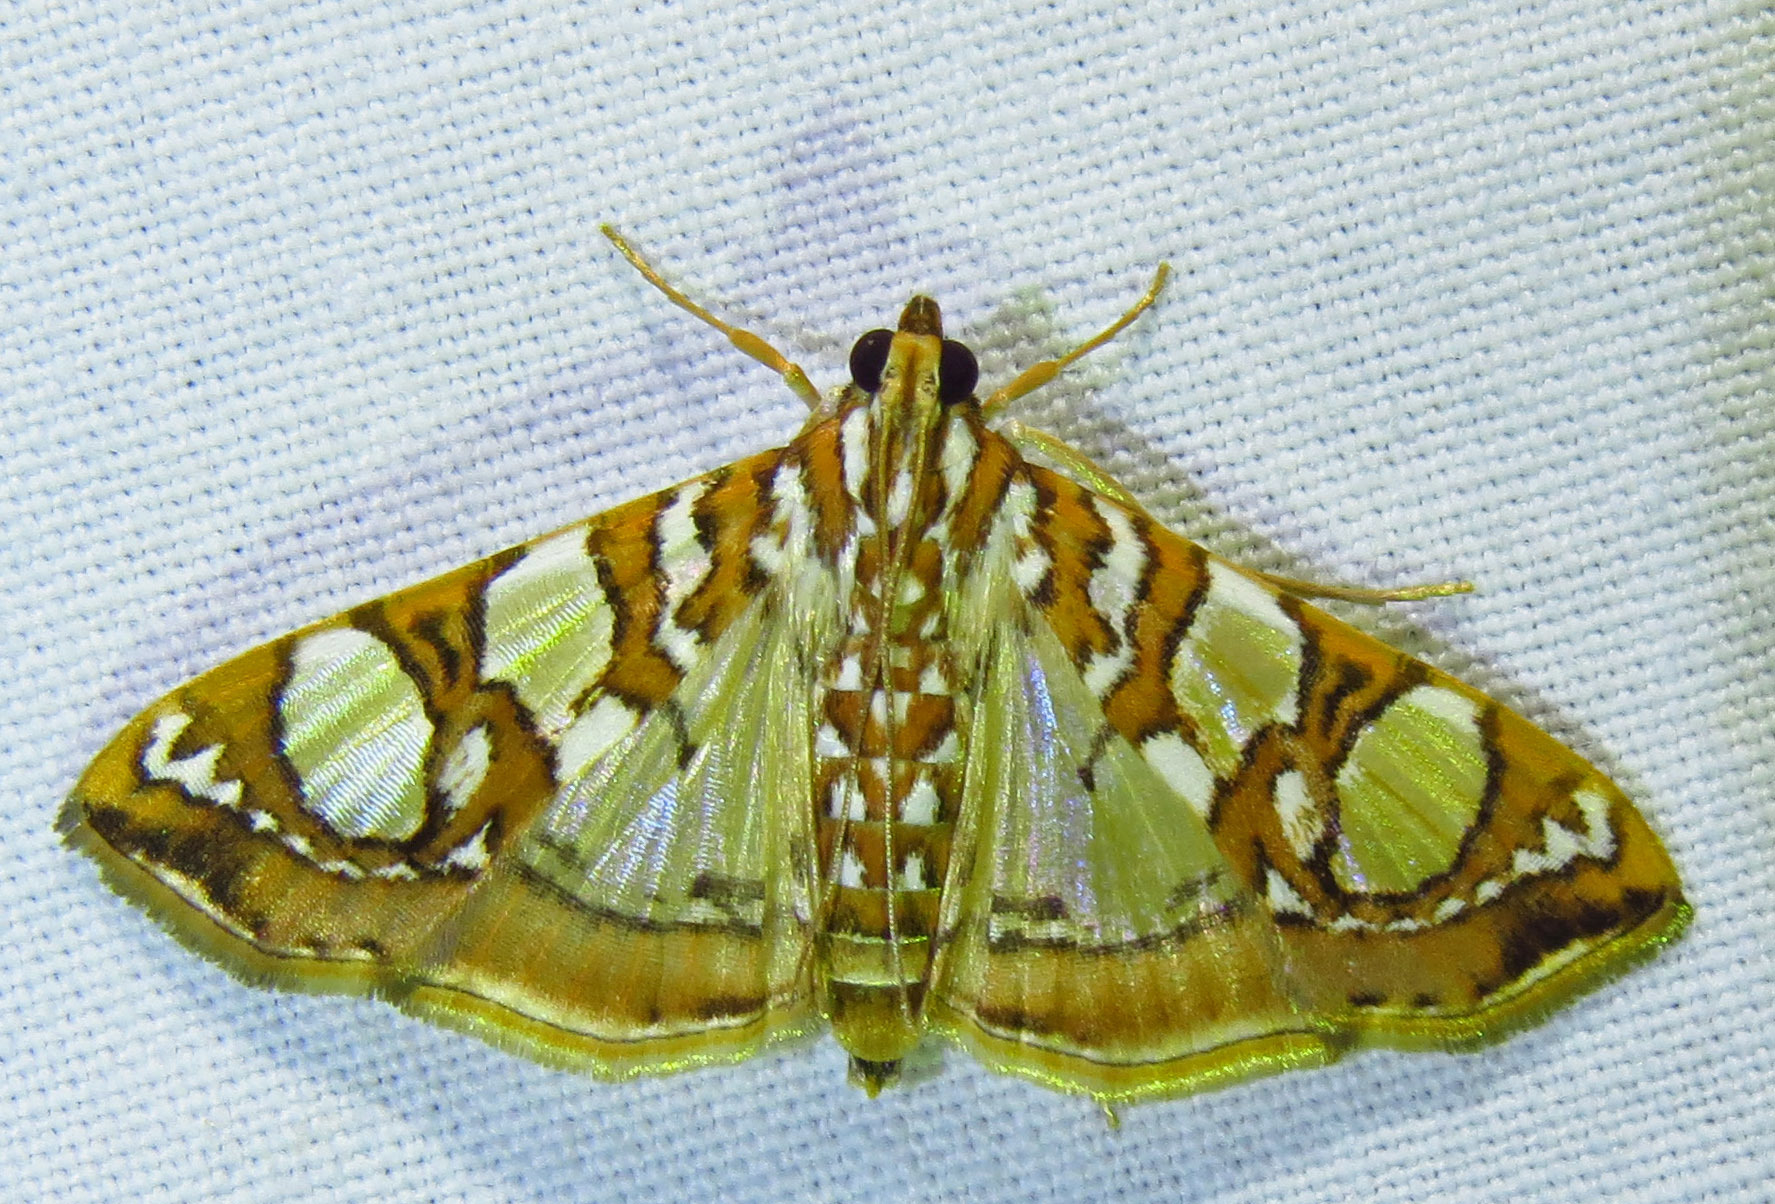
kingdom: Animalia
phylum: Arthropoda
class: Insecta
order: Lepidoptera
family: Crambidae
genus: Glyphodes
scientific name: Glyphodes sibillalis
